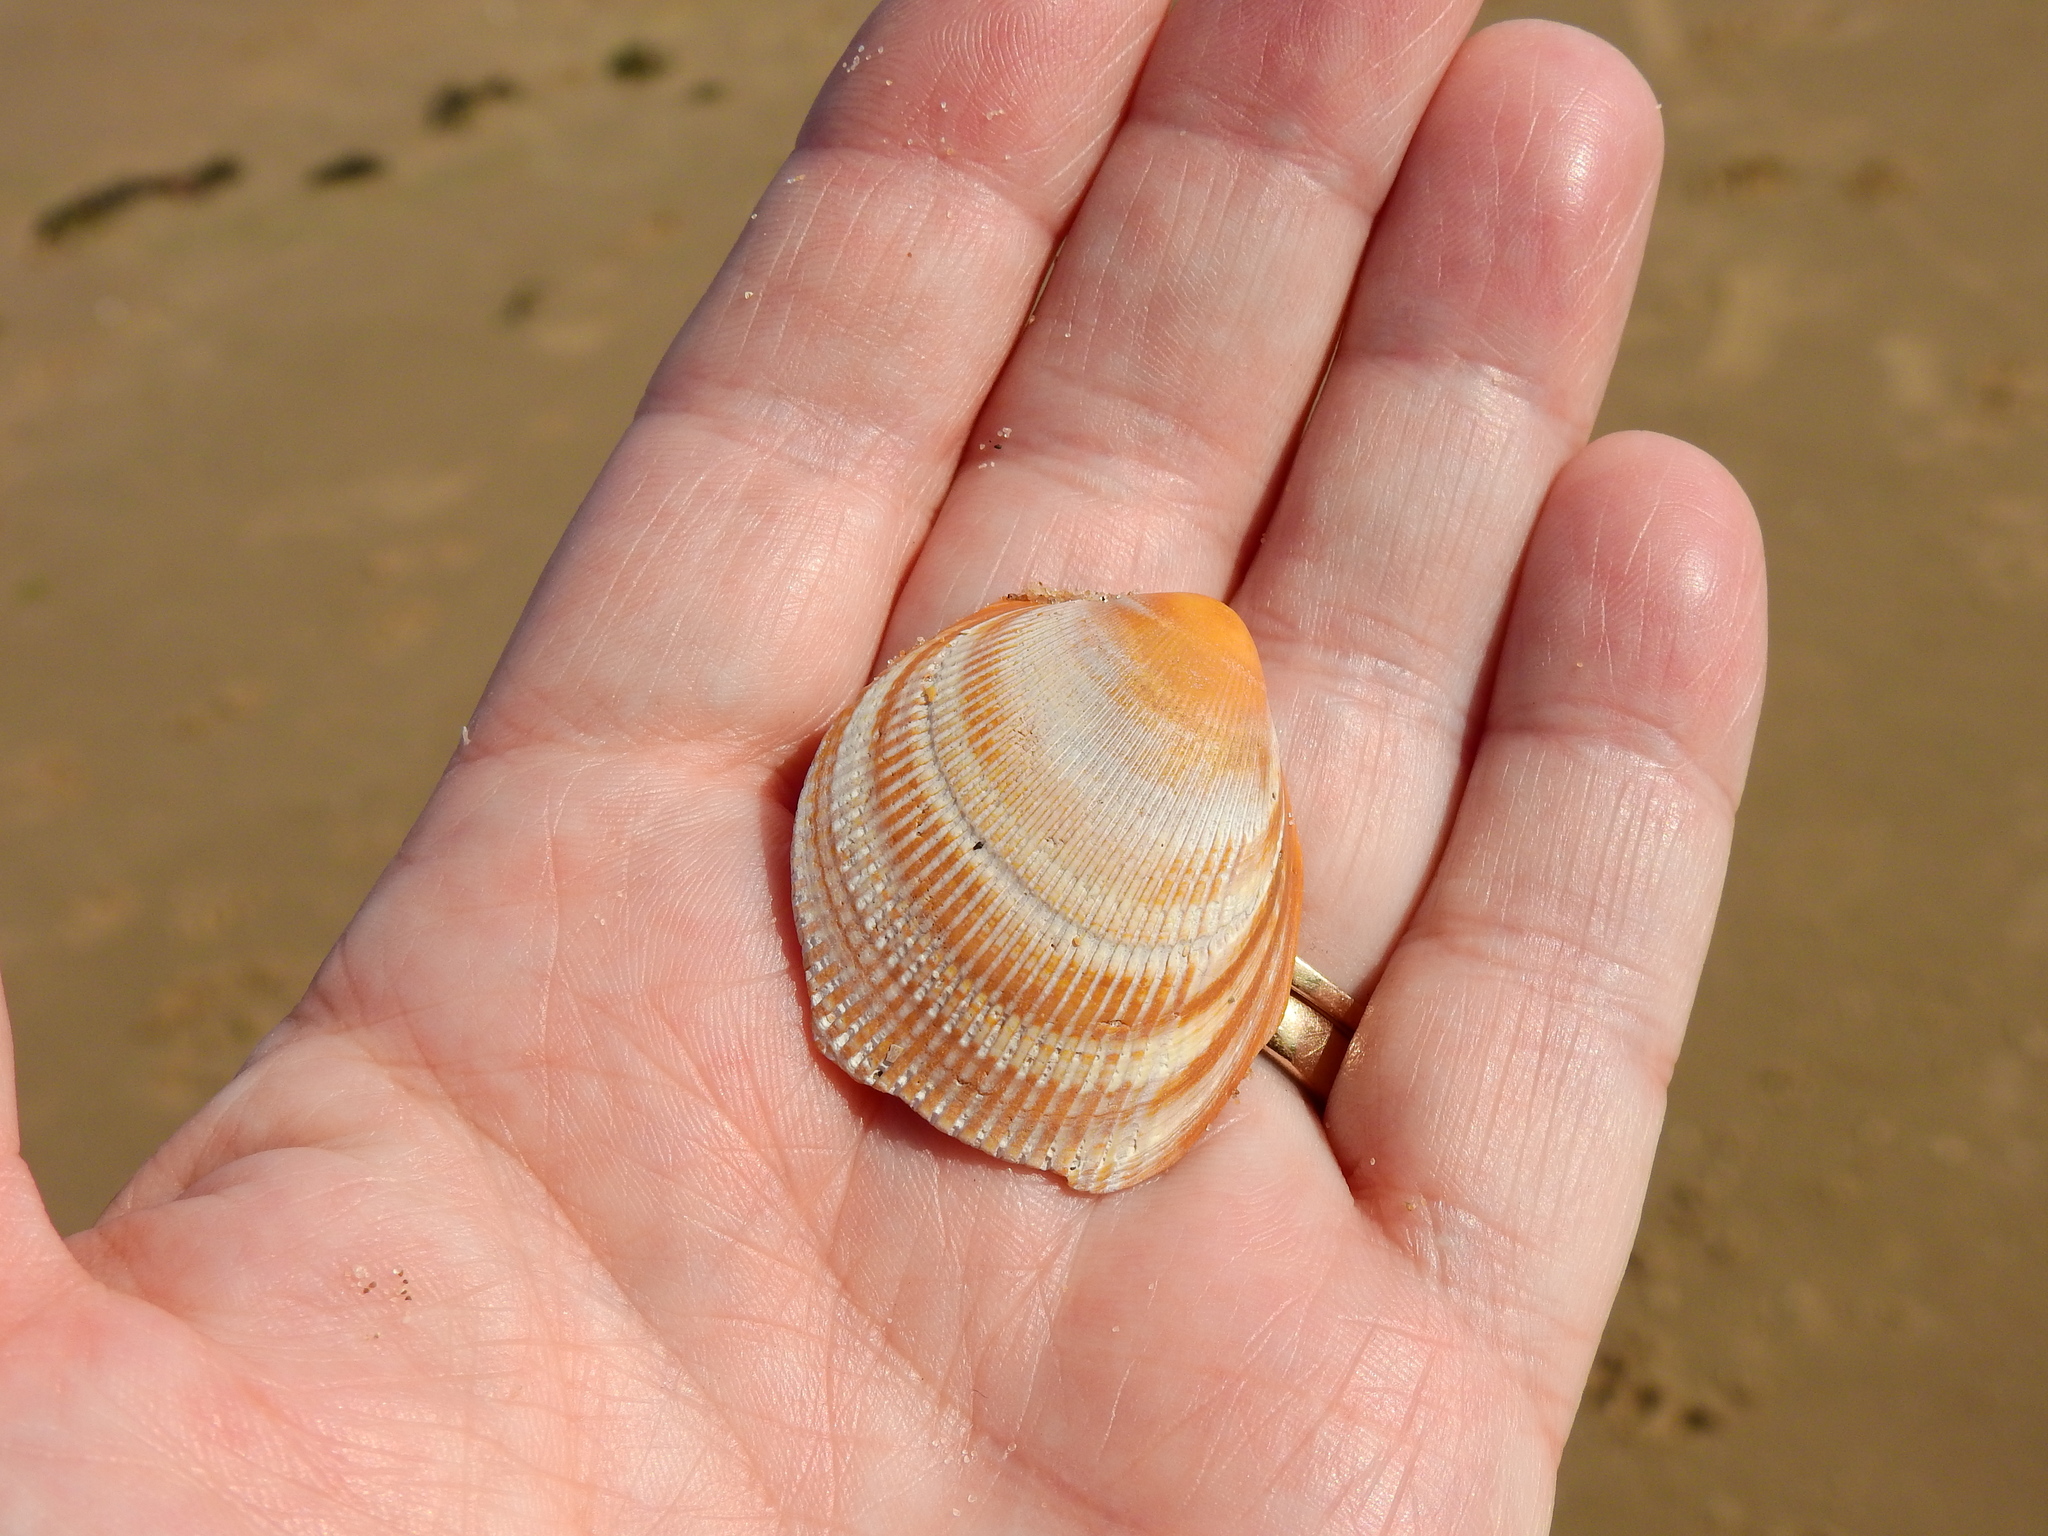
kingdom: Animalia
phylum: Mollusca
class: Bivalvia
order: Cardiida
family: Cardiidae
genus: Laevicardium
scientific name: Laevicardium crassum
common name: Norway cockle
